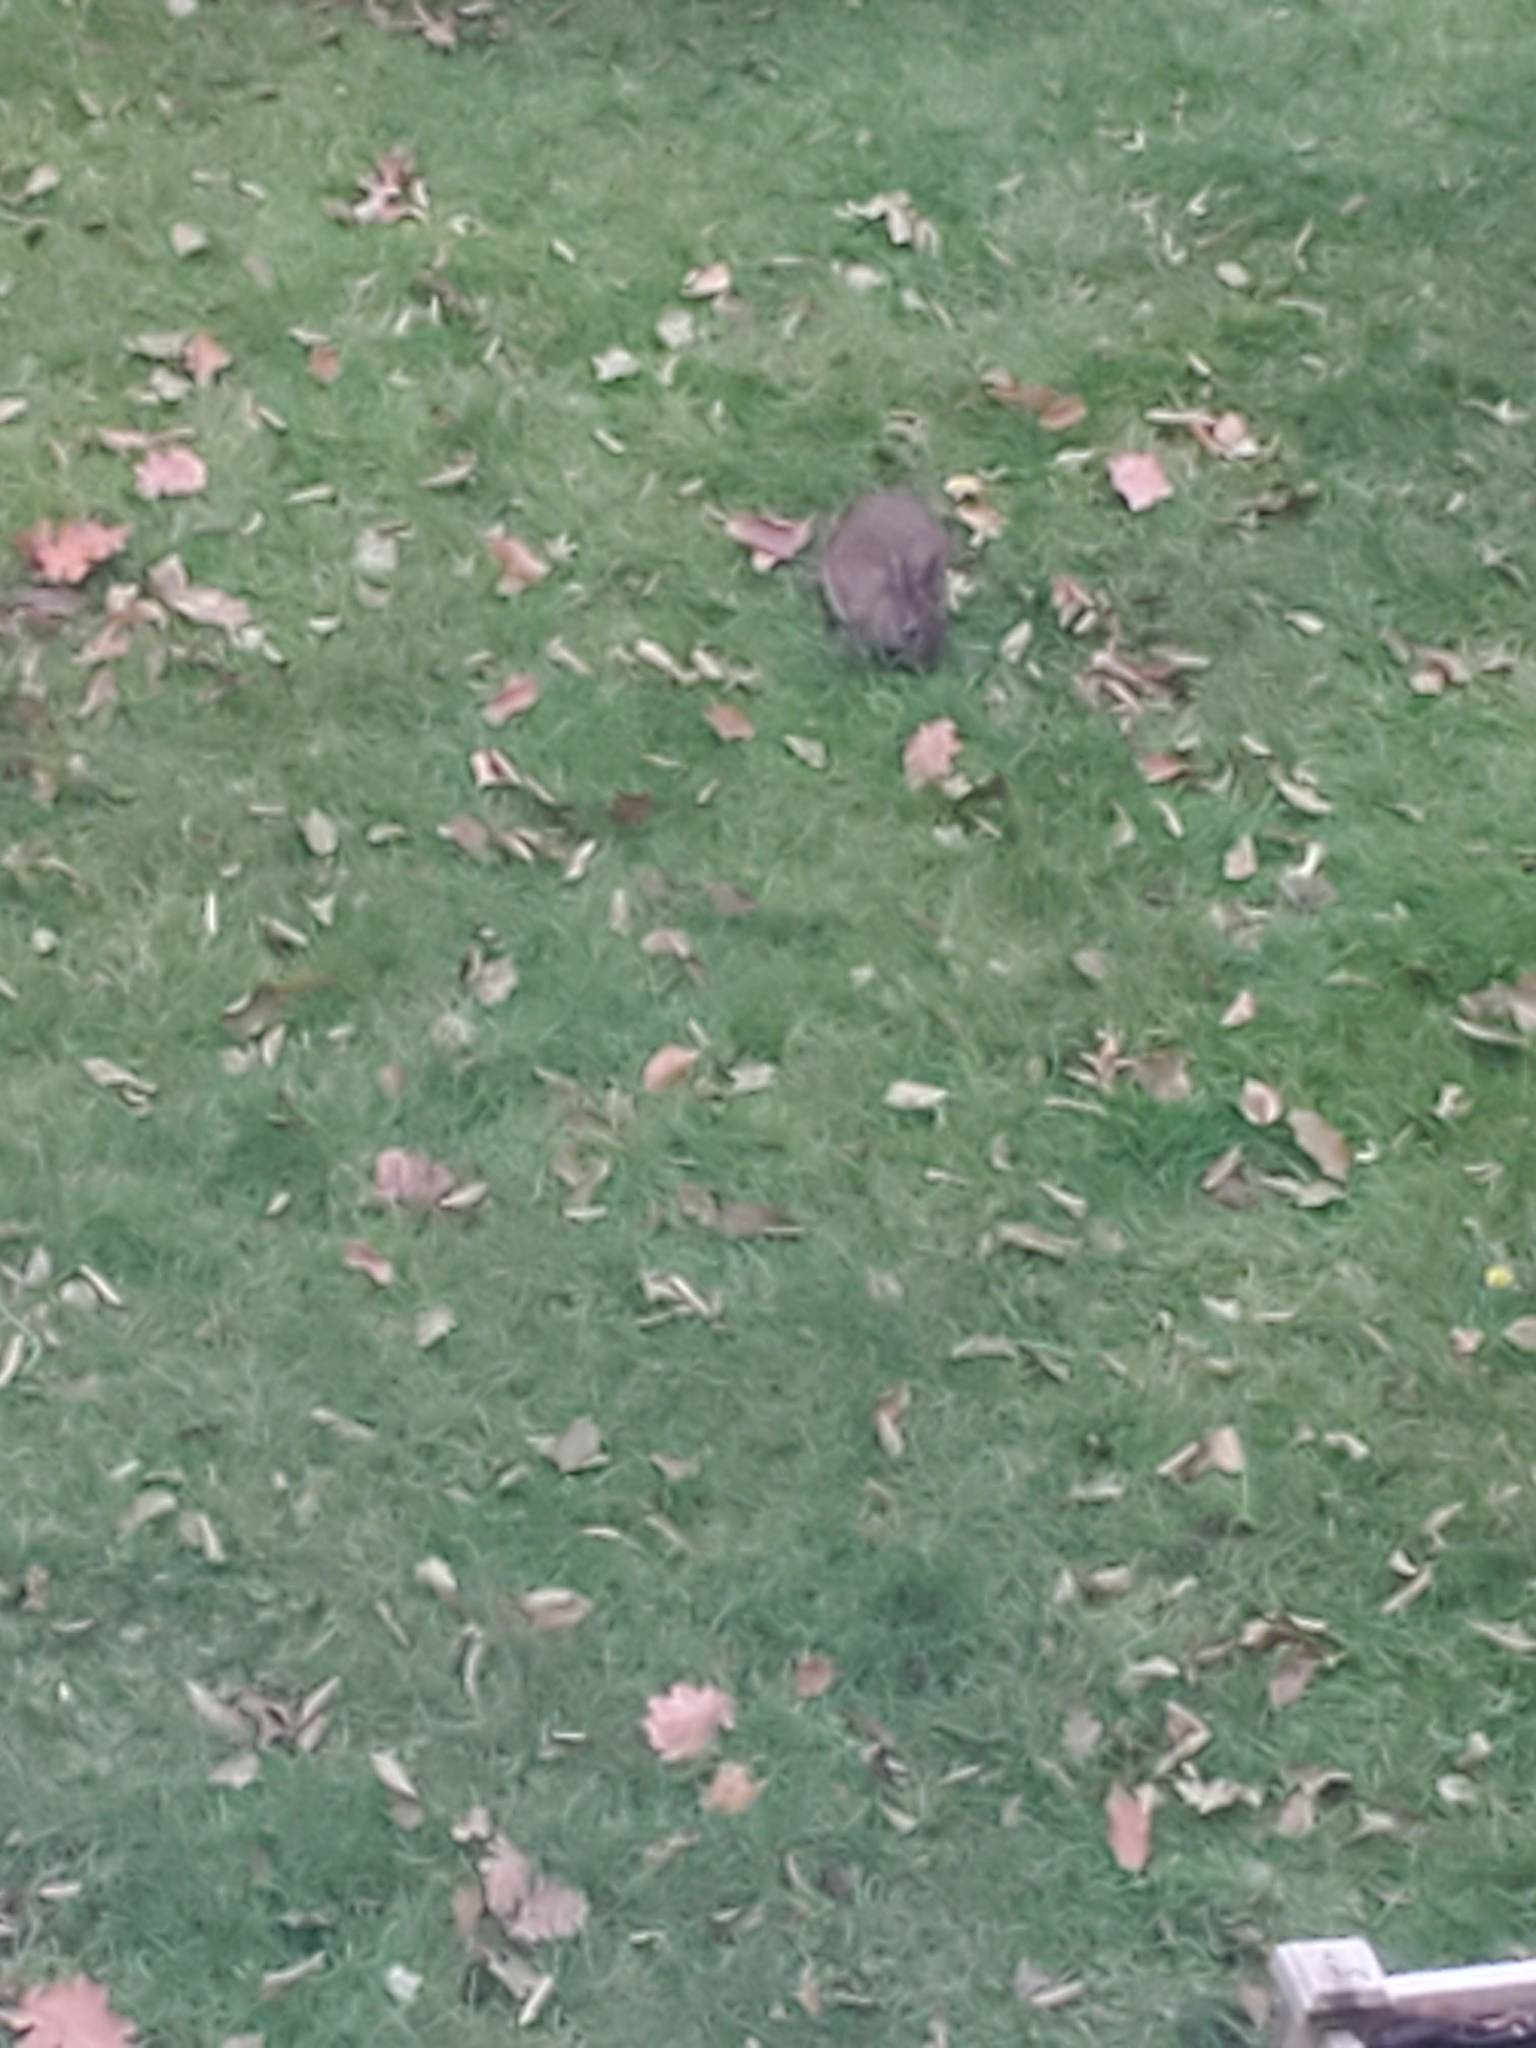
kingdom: Animalia
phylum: Chordata
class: Mammalia
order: Lagomorpha
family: Leporidae
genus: Sylvilagus
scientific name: Sylvilagus
